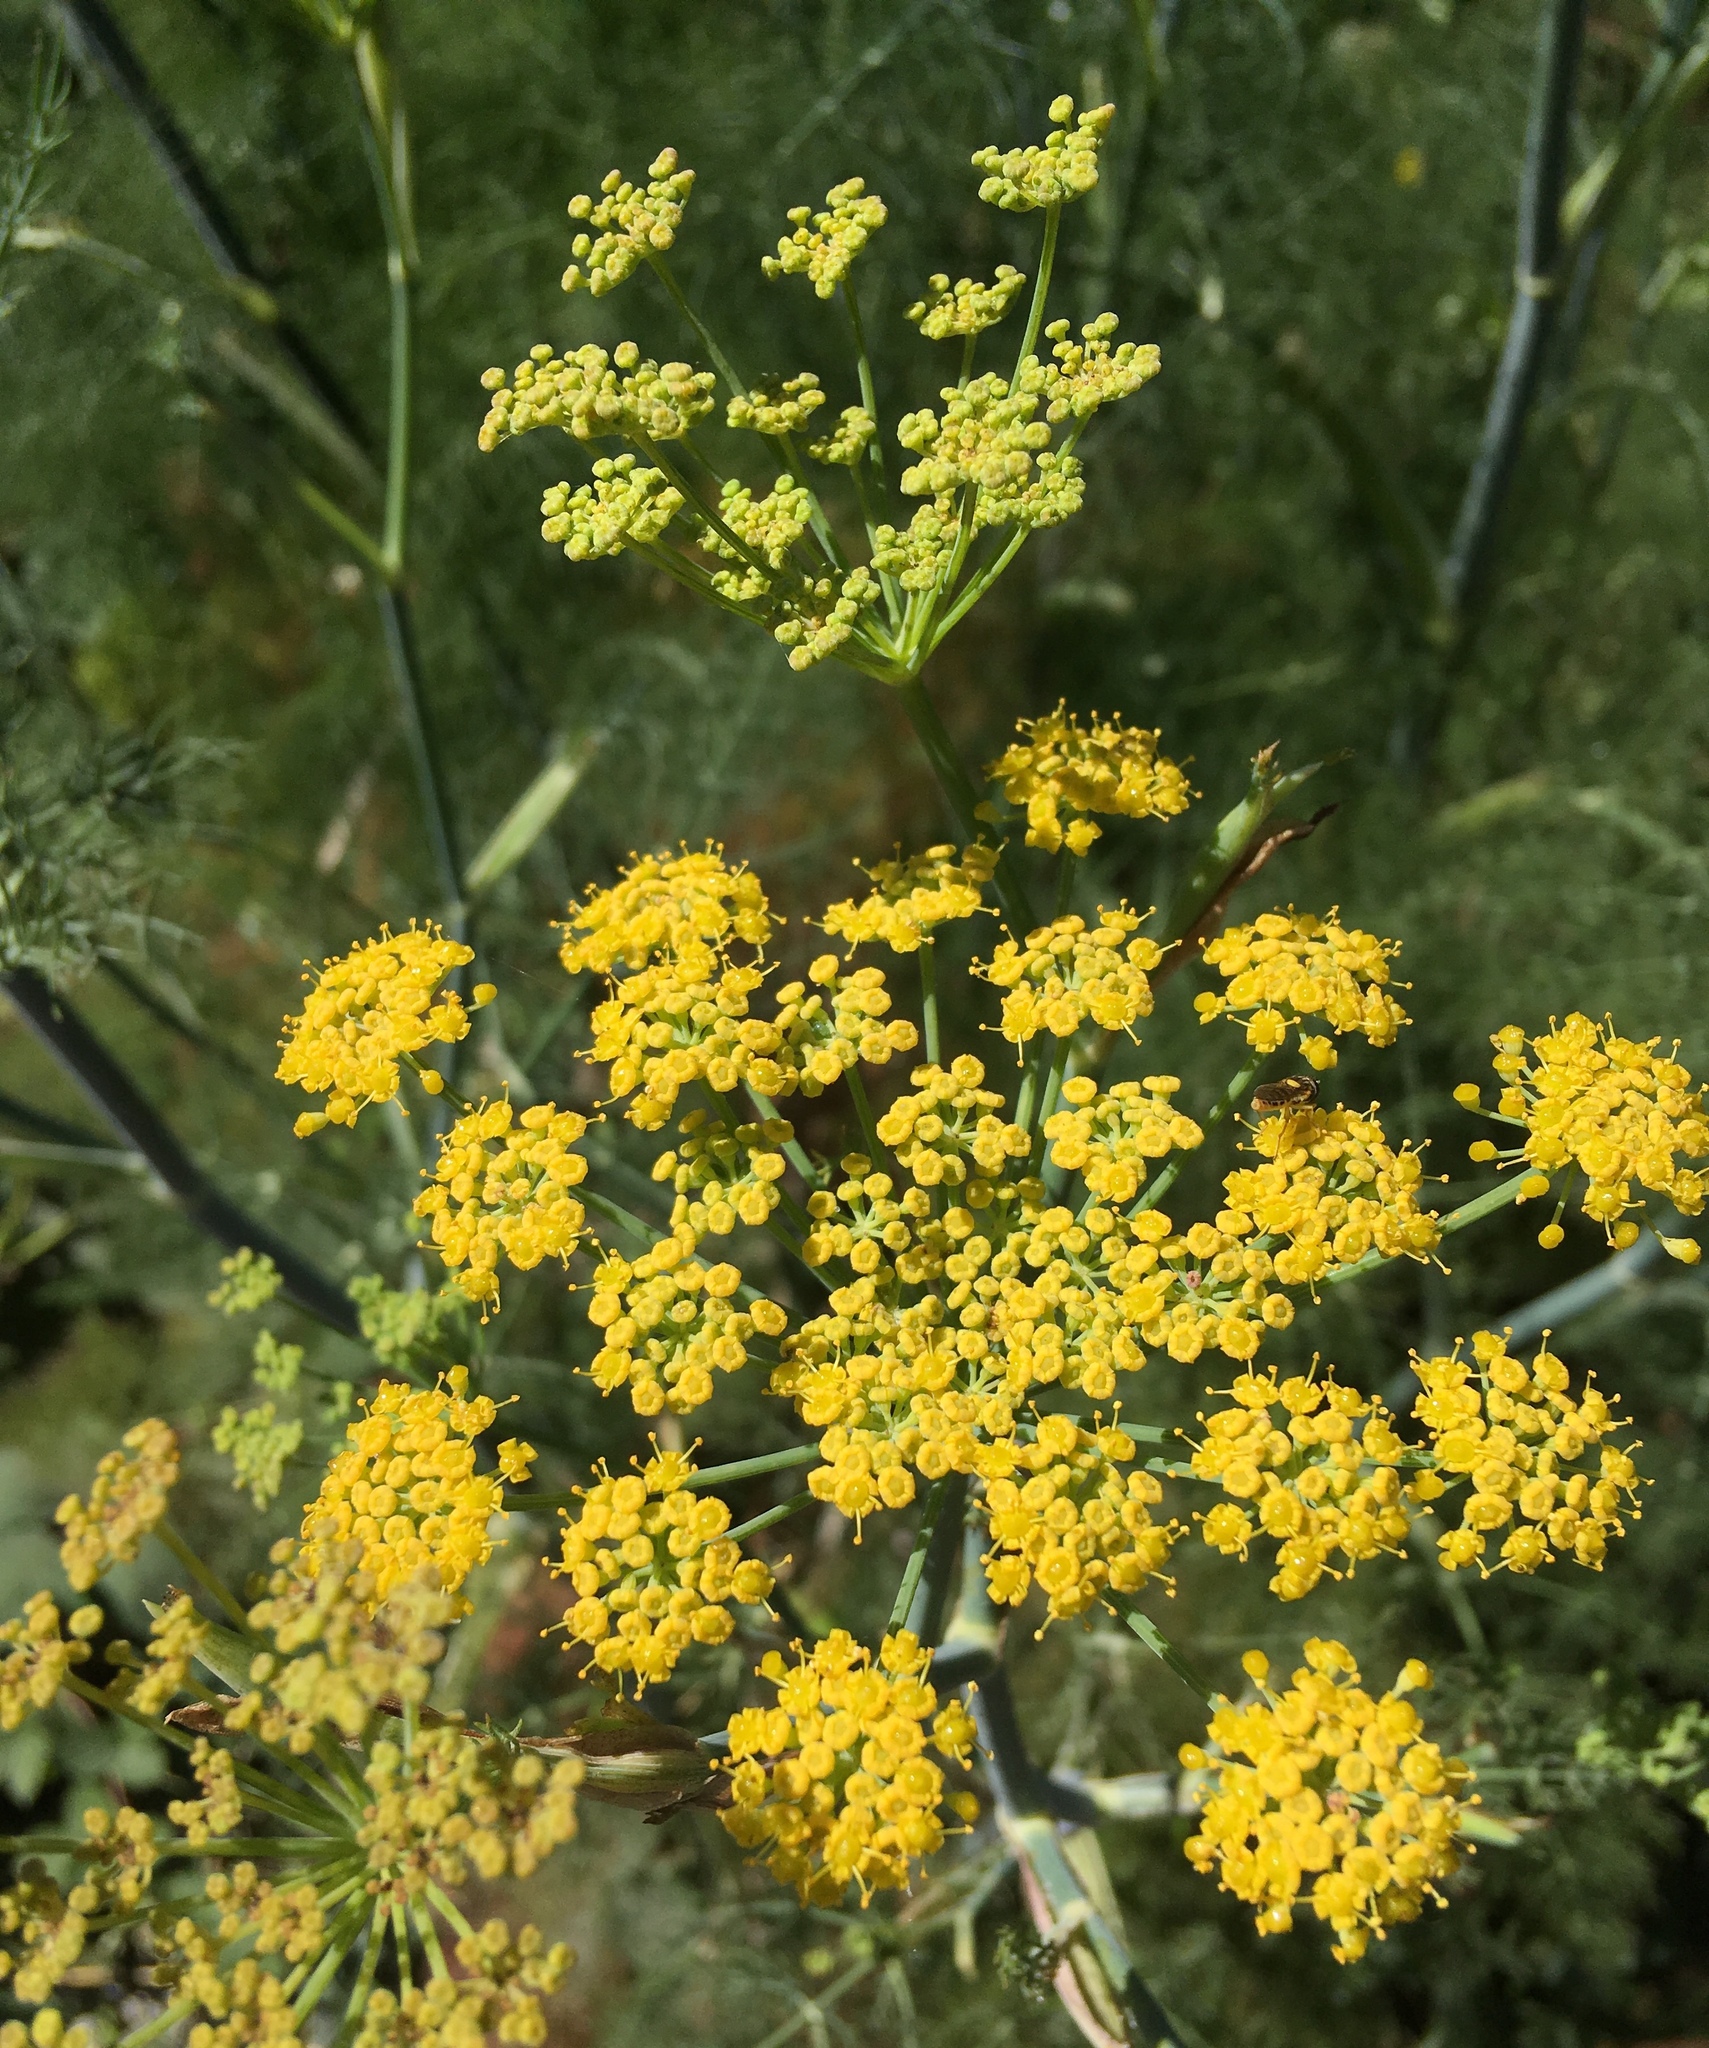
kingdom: Plantae
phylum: Tracheophyta
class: Magnoliopsida
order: Apiales
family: Apiaceae
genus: Foeniculum
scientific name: Foeniculum vulgare
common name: Fennel
